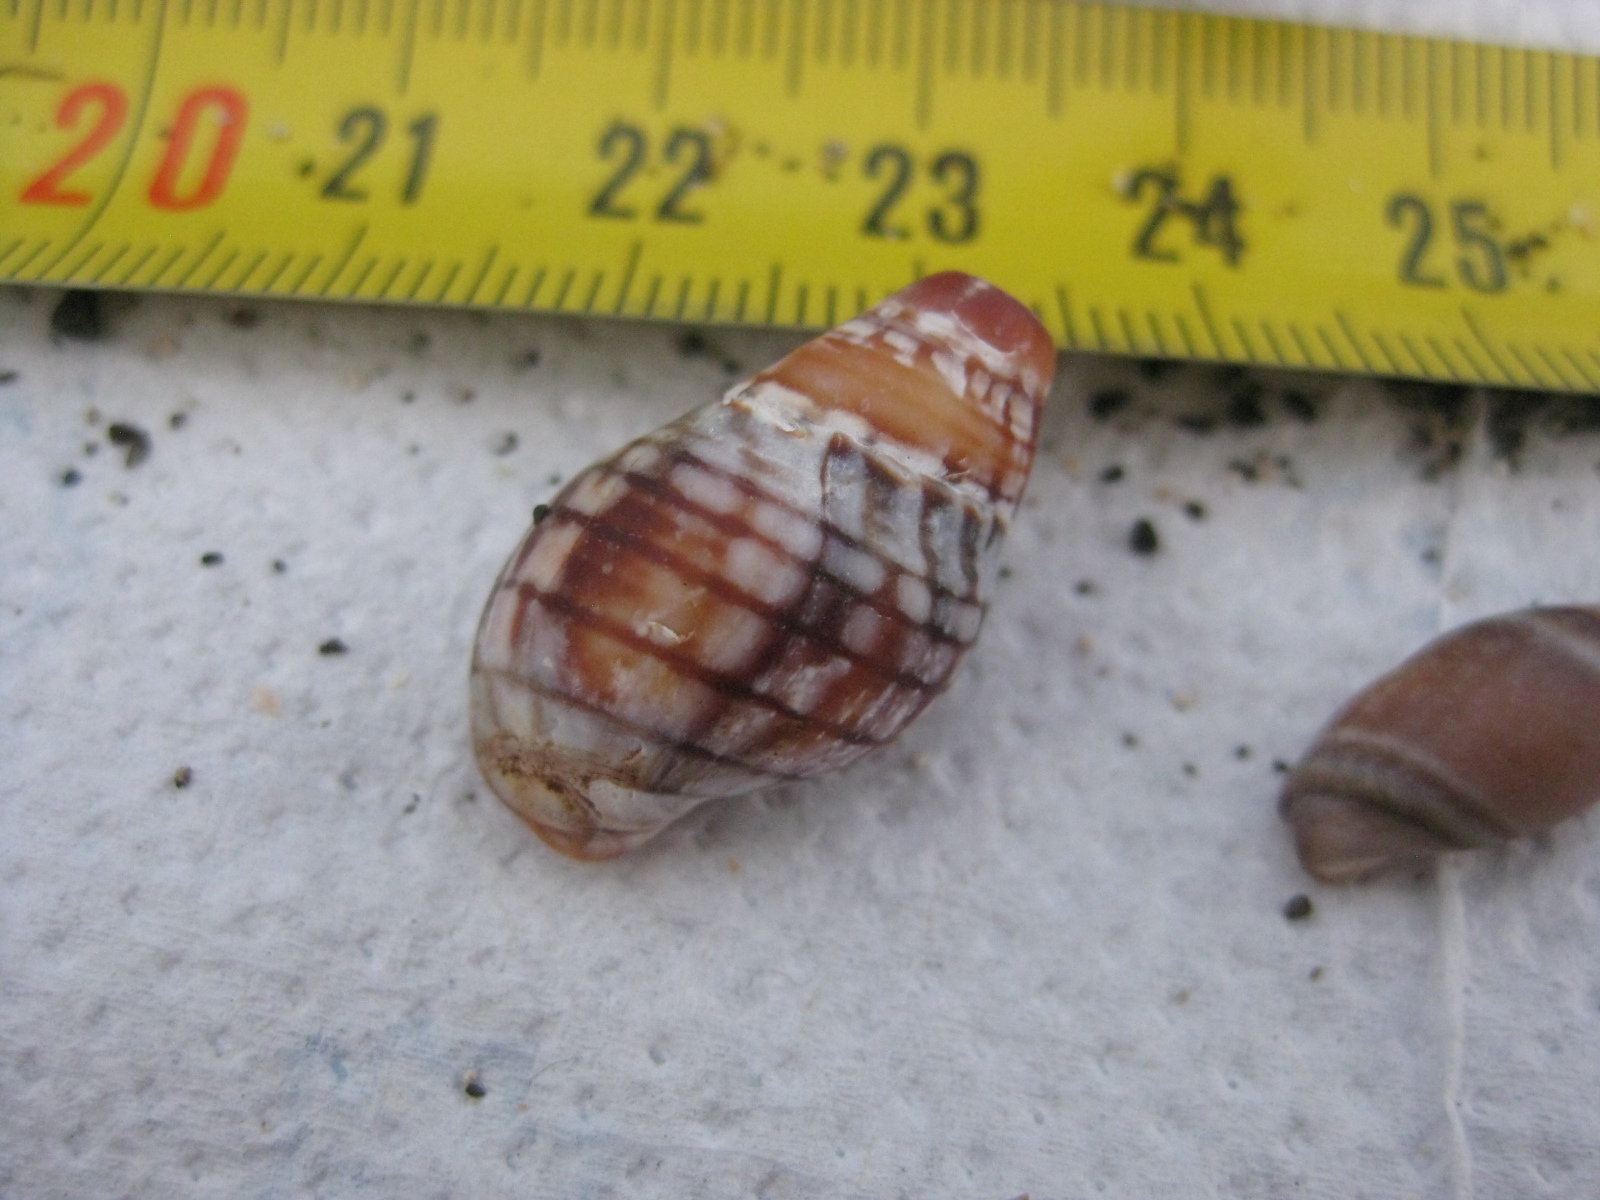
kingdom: Animalia
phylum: Mollusca
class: Gastropoda
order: Neogastropoda
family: Cominellidae
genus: Cominella
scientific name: Cominella virgata
